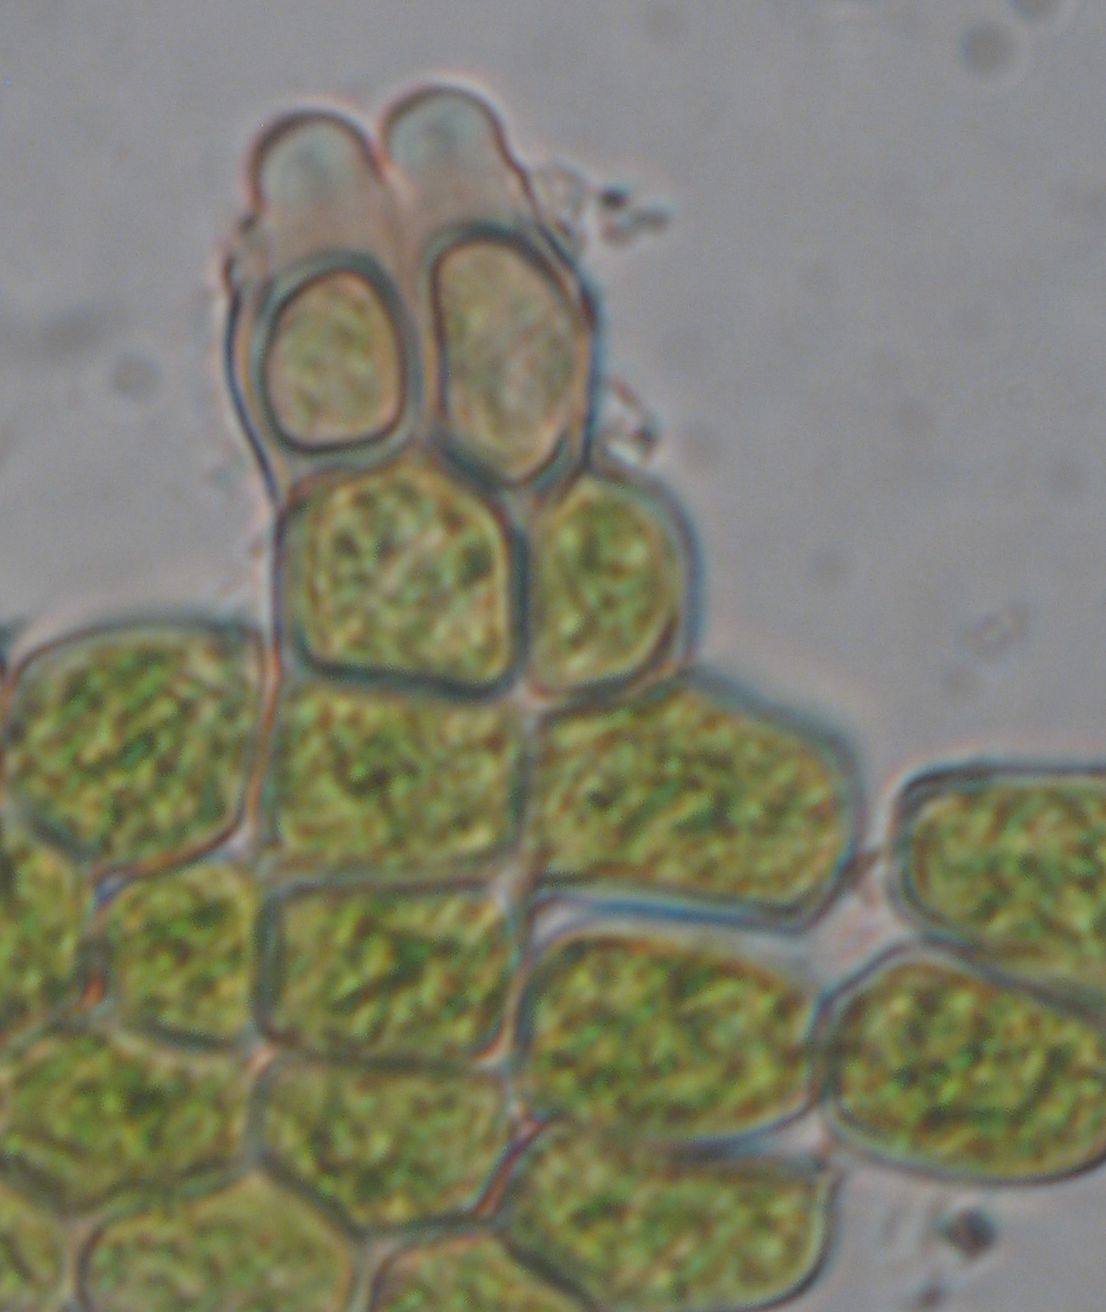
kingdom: Plantae
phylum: Bryophyta
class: Polytrichopsida
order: Polytrichales
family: Polytrichaceae
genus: Polytrichum
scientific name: Polytrichum juniperinum
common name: Juniper haircap moss
